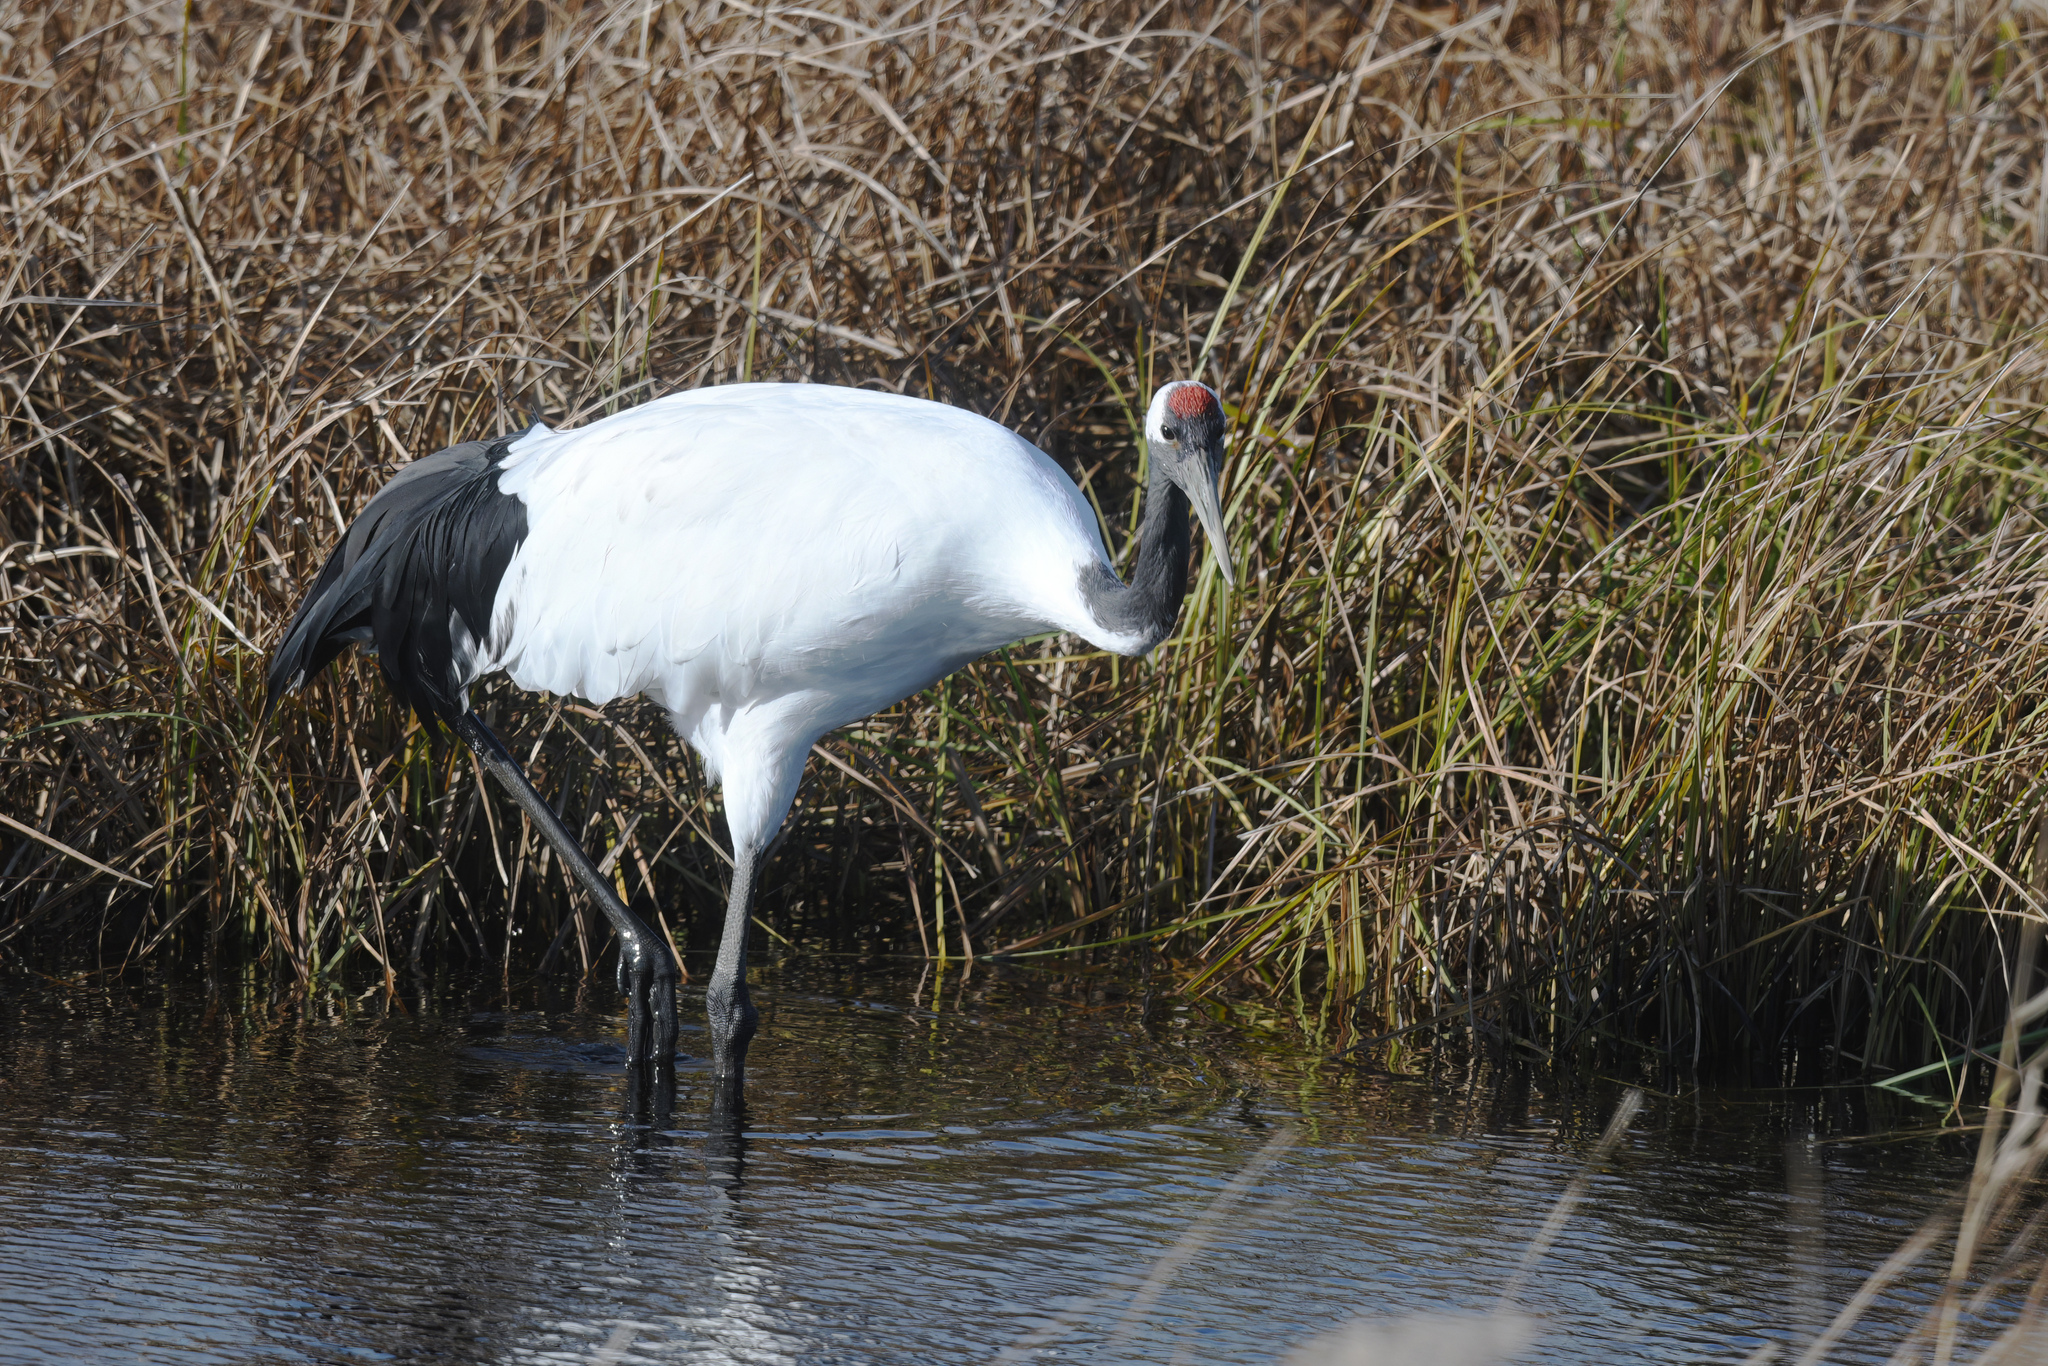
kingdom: Animalia
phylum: Chordata
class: Aves
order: Gruiformes
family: Gruidae
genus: Grus
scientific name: Grus japonensis
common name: Red-crowned crane
